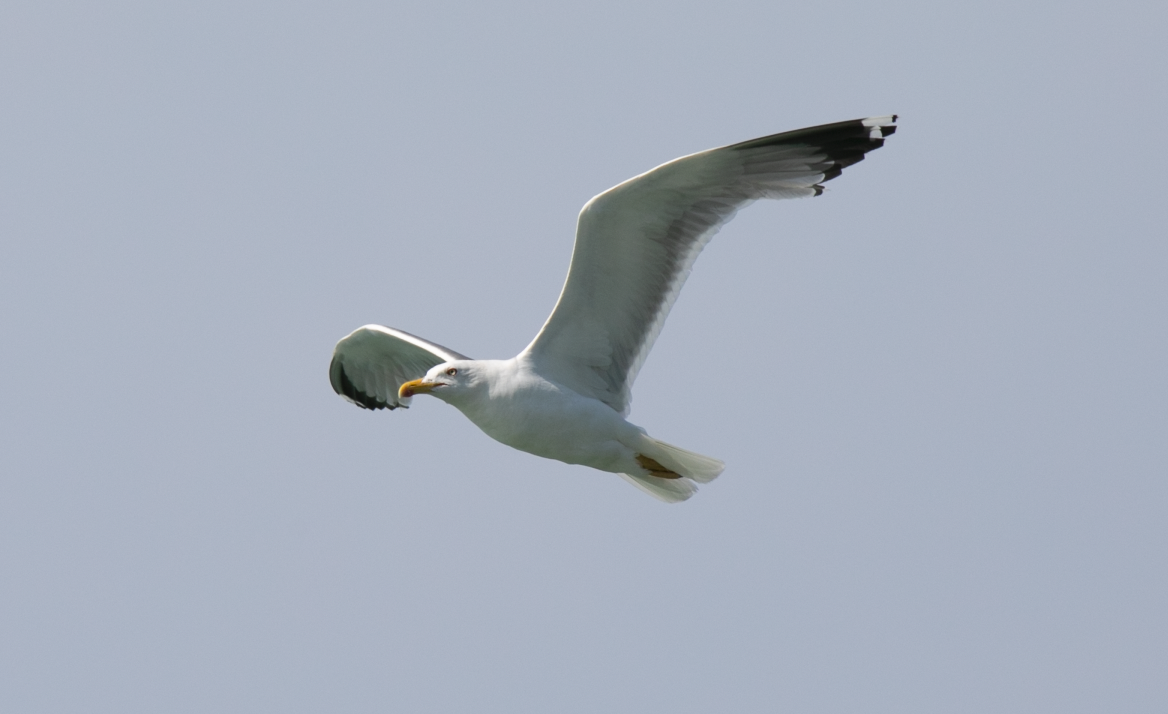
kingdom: Animalia
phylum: Chordata
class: Aves
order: Charadriiformes
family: Laridae
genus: Larus
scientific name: Larus michahellis
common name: Yellow-legged gull
